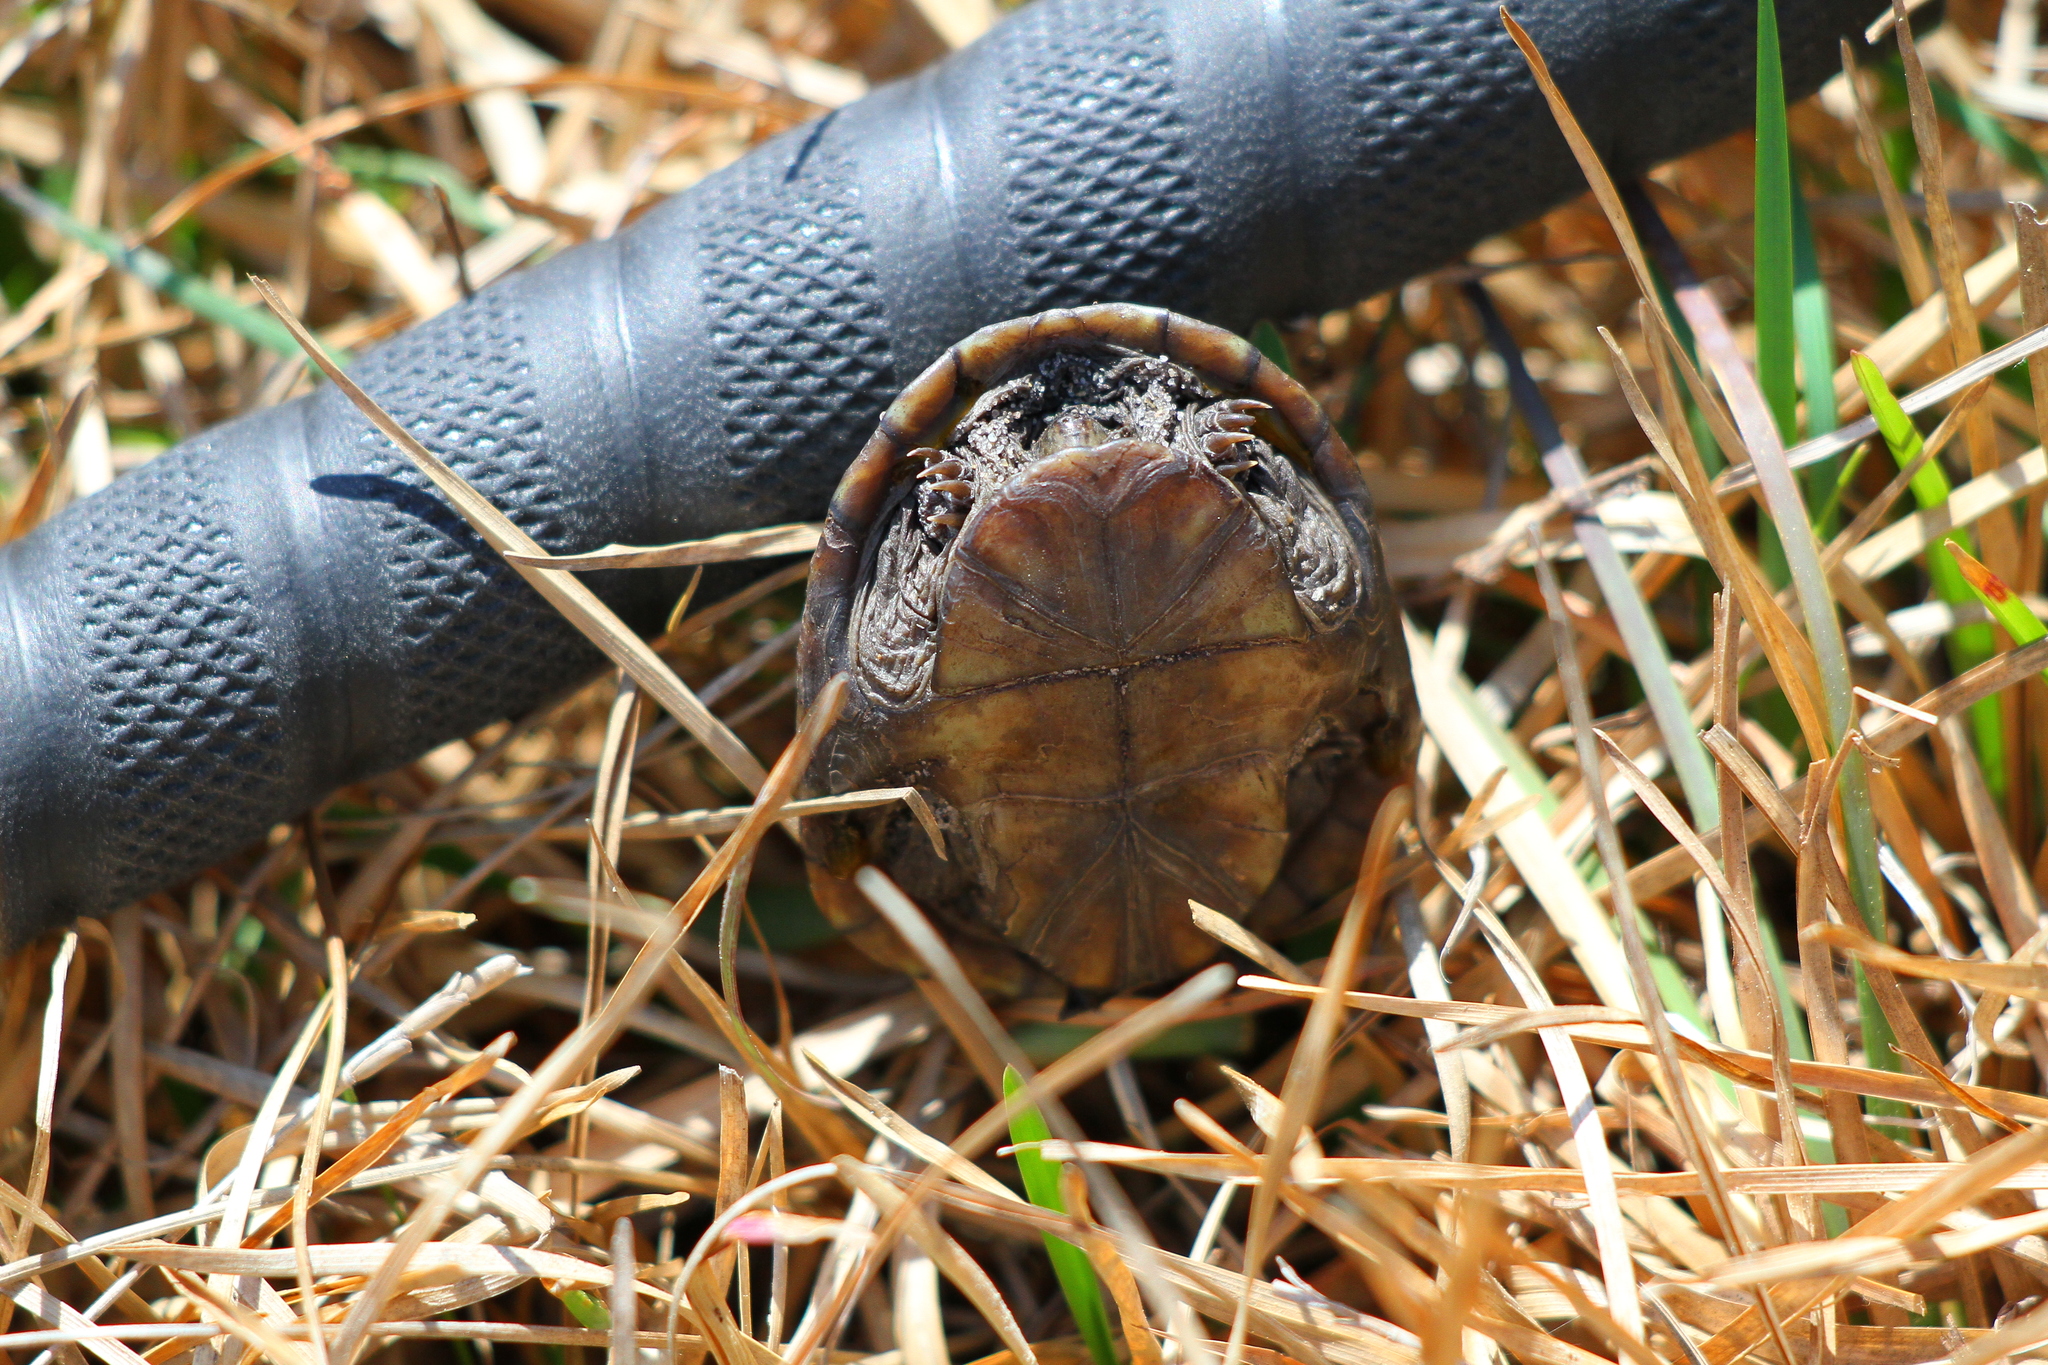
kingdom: Animalia
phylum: Chordata
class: Testudines
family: Kinosternidae
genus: Kinosternon
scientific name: Kinosternon subrubrum
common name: Eastern mud turtle
